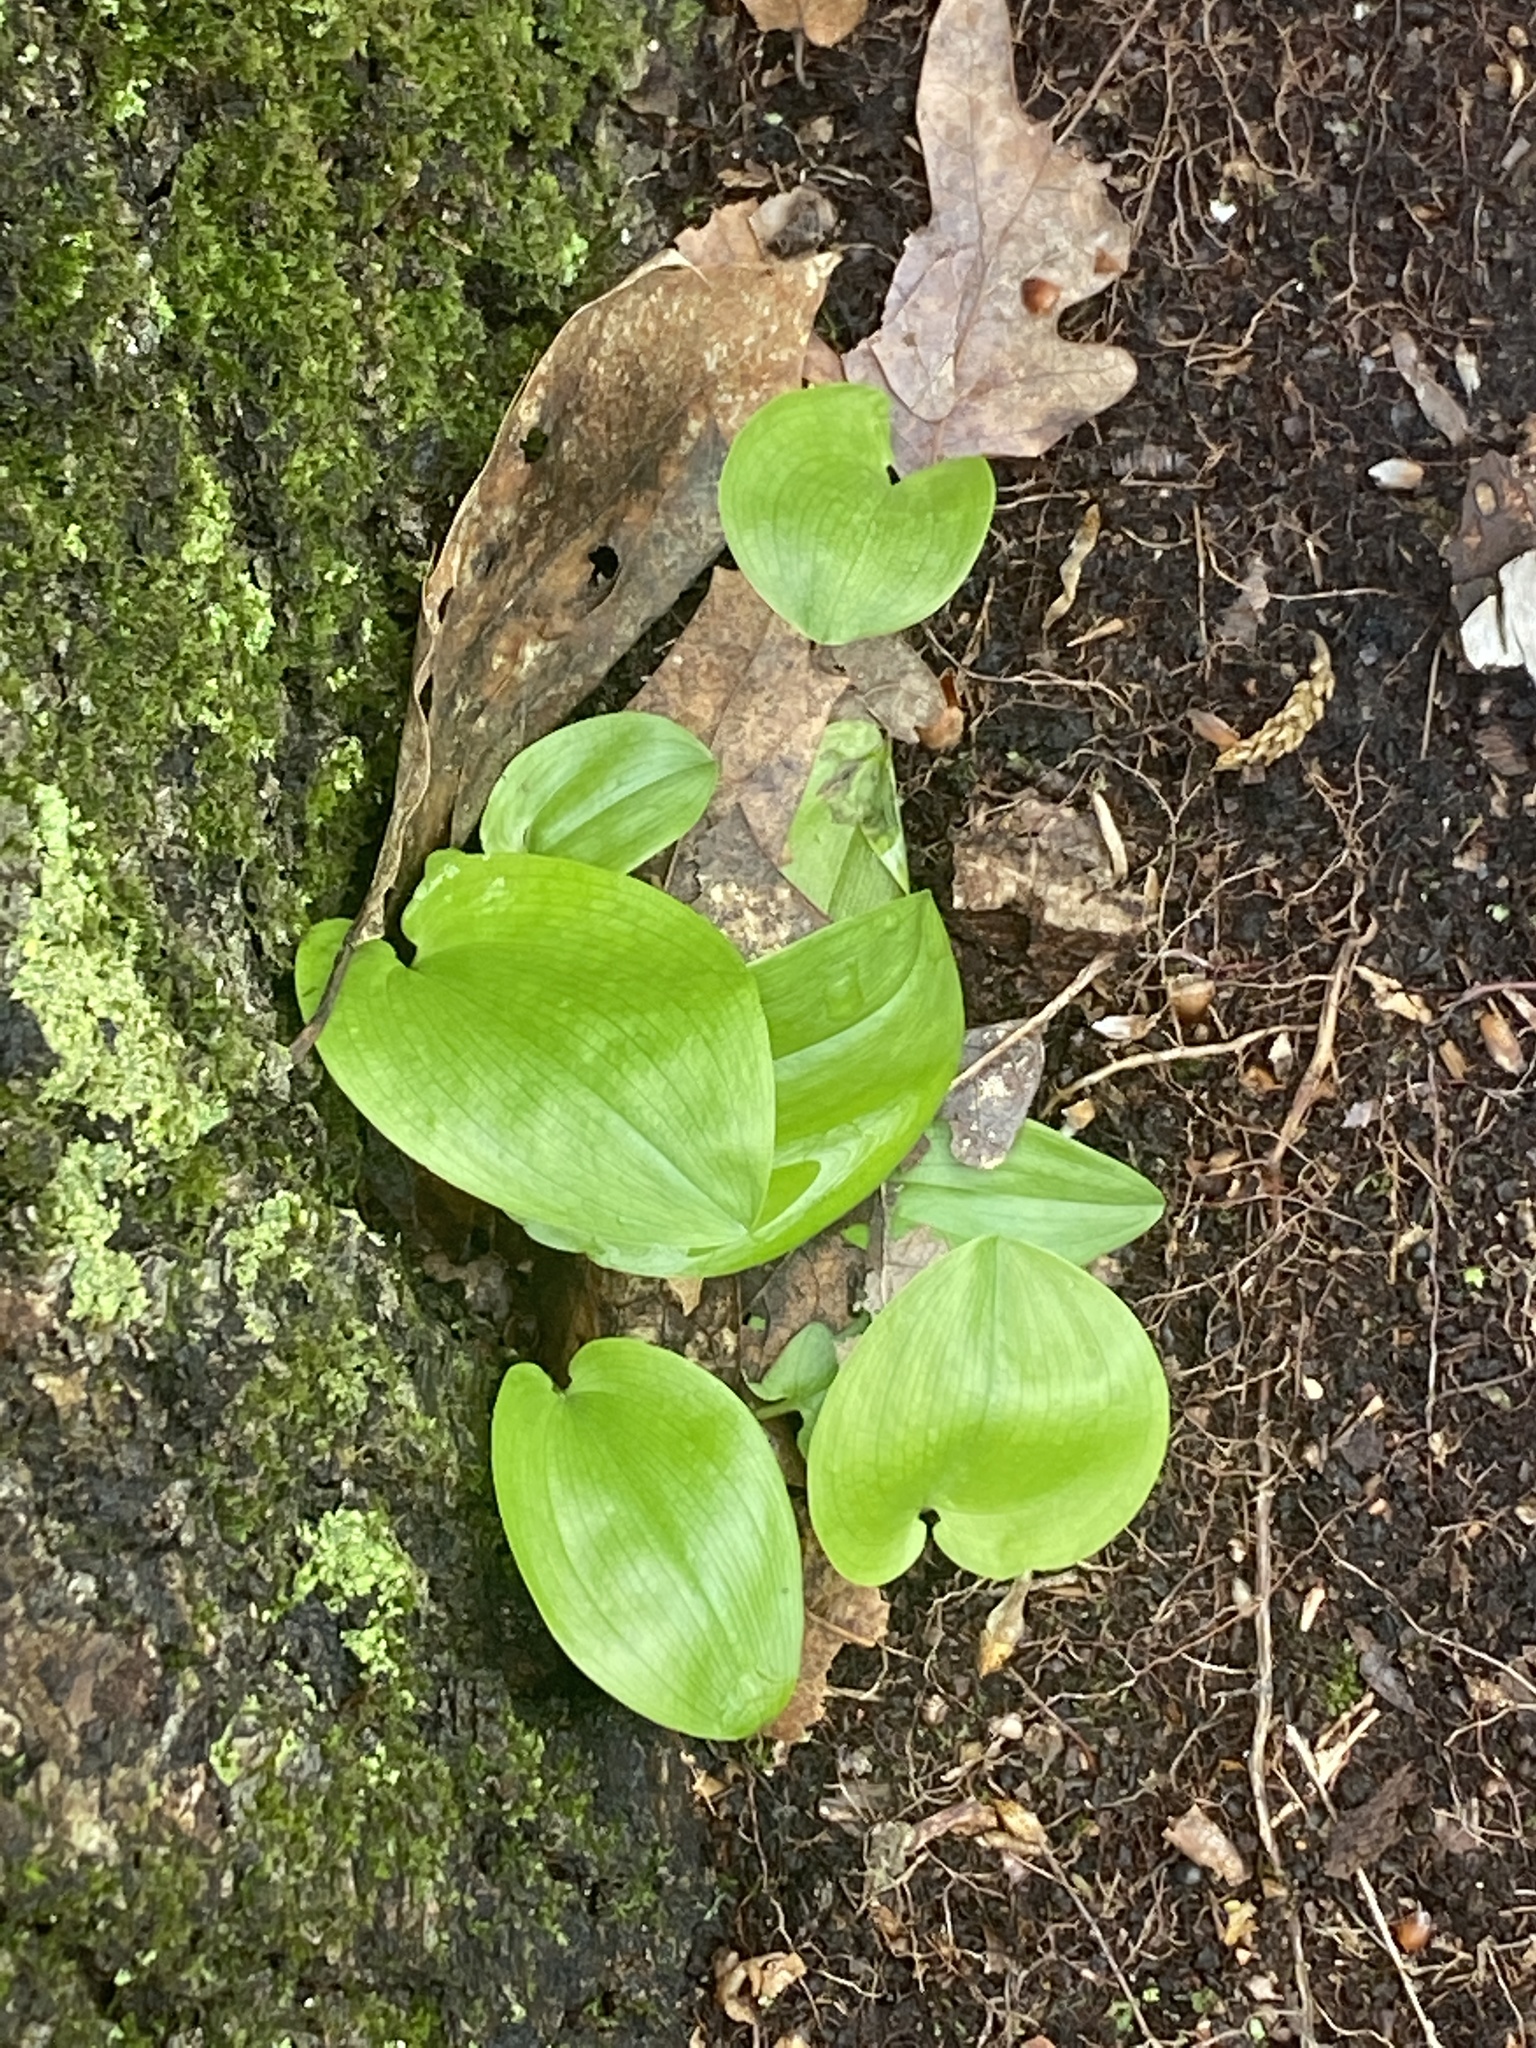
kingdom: Plantae
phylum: Tracheophyta
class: Liliopsida
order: Asparagales
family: Asparagaceae
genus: Maianthemum
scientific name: Maianthemum canadense
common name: False lily-of-the-valley
